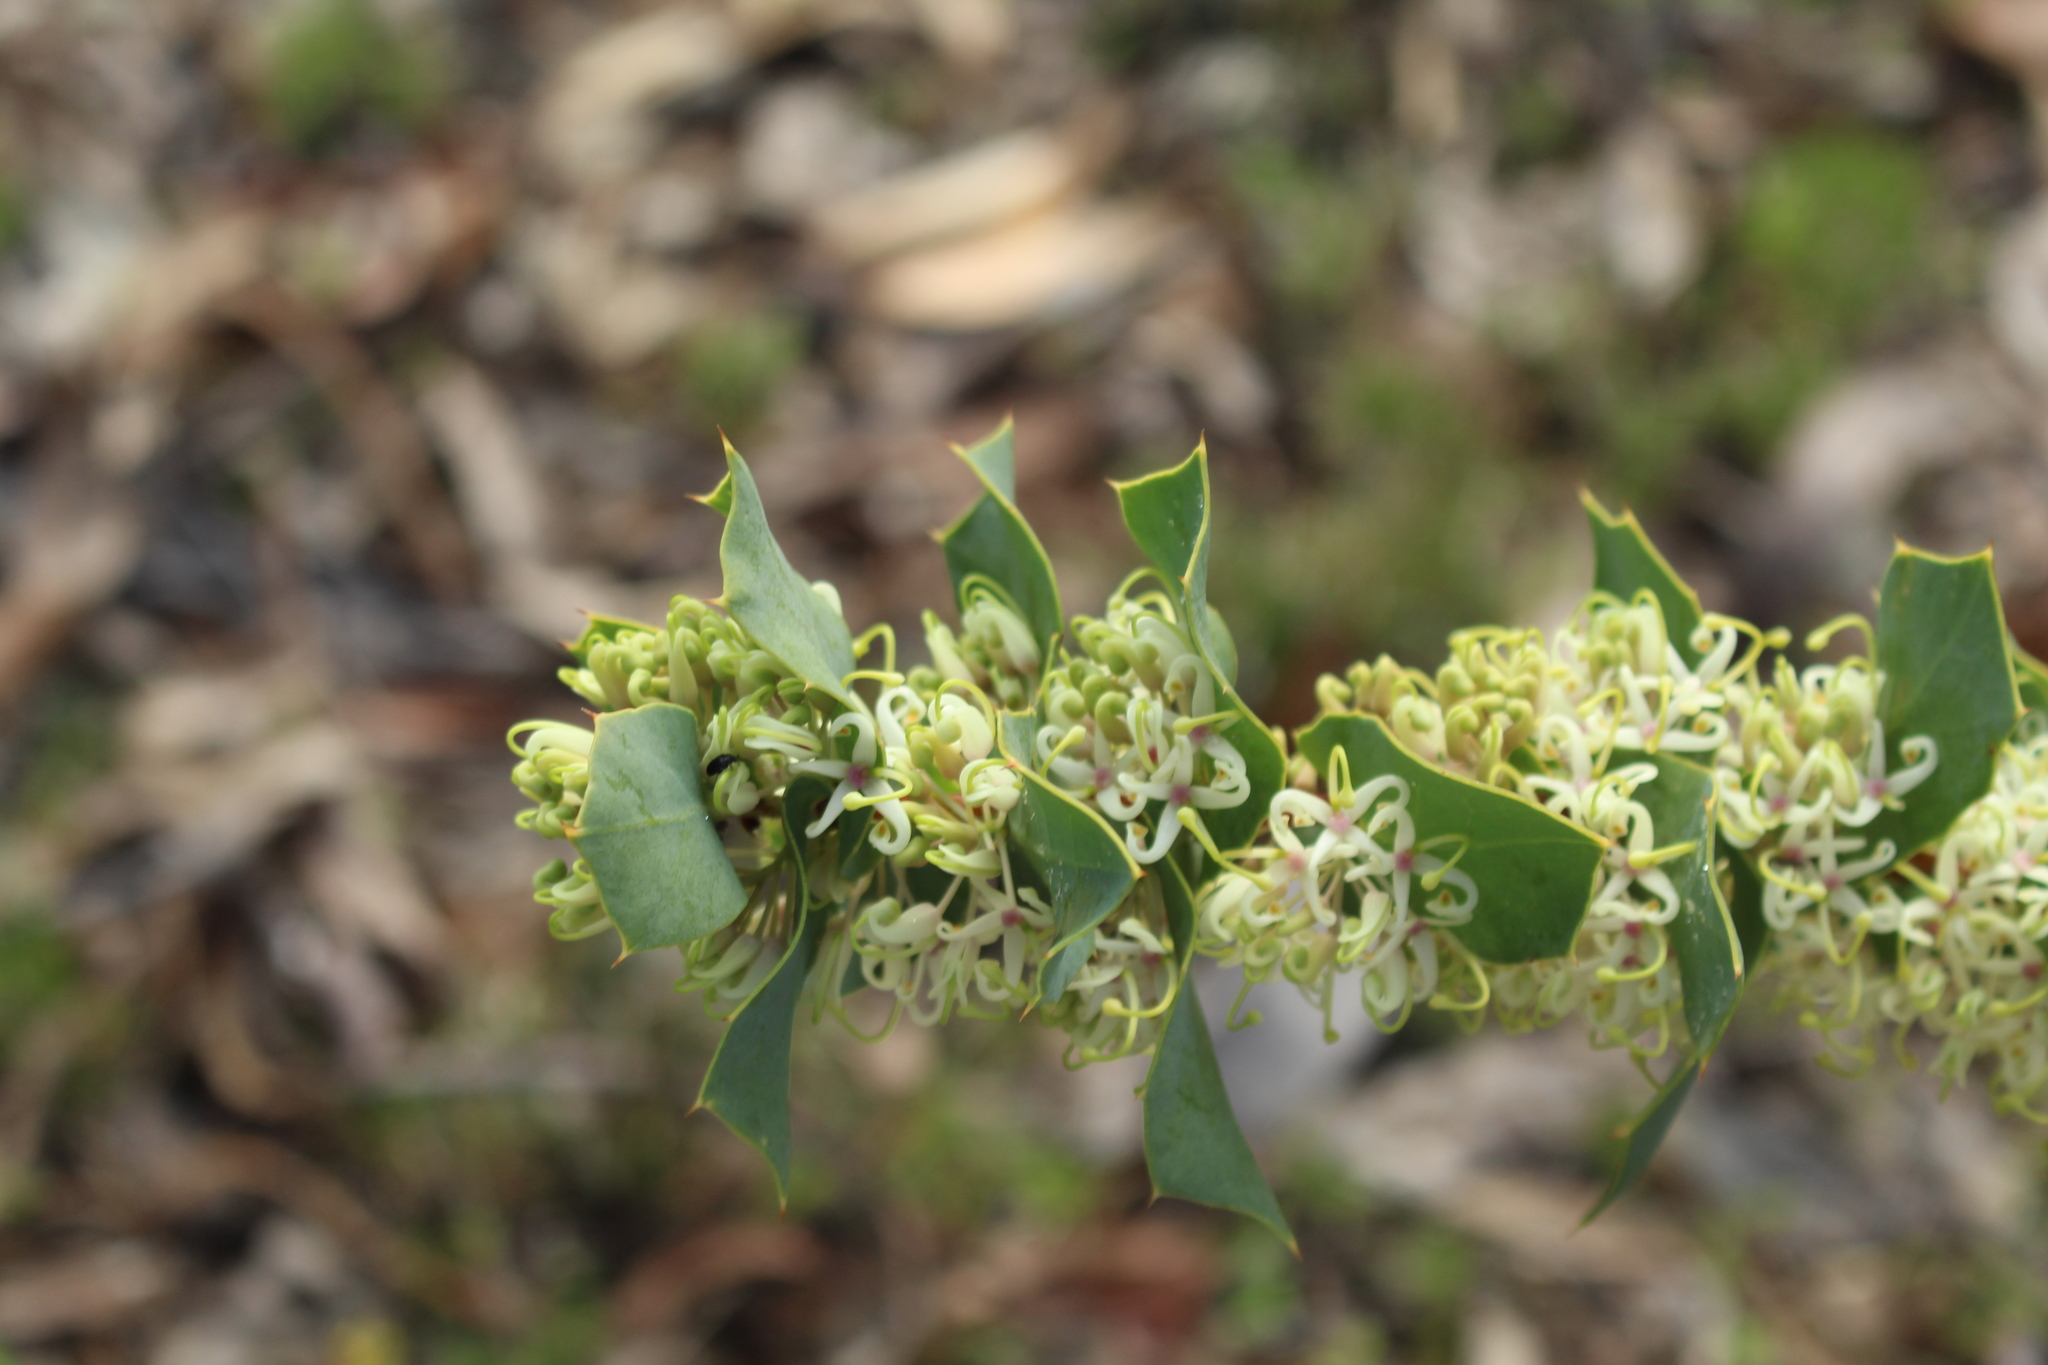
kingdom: Plantae
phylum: Tracheophyta
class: Magnoliopsida
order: Proteales
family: Proteaceae
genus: Hakea
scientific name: Hakea prostrata
